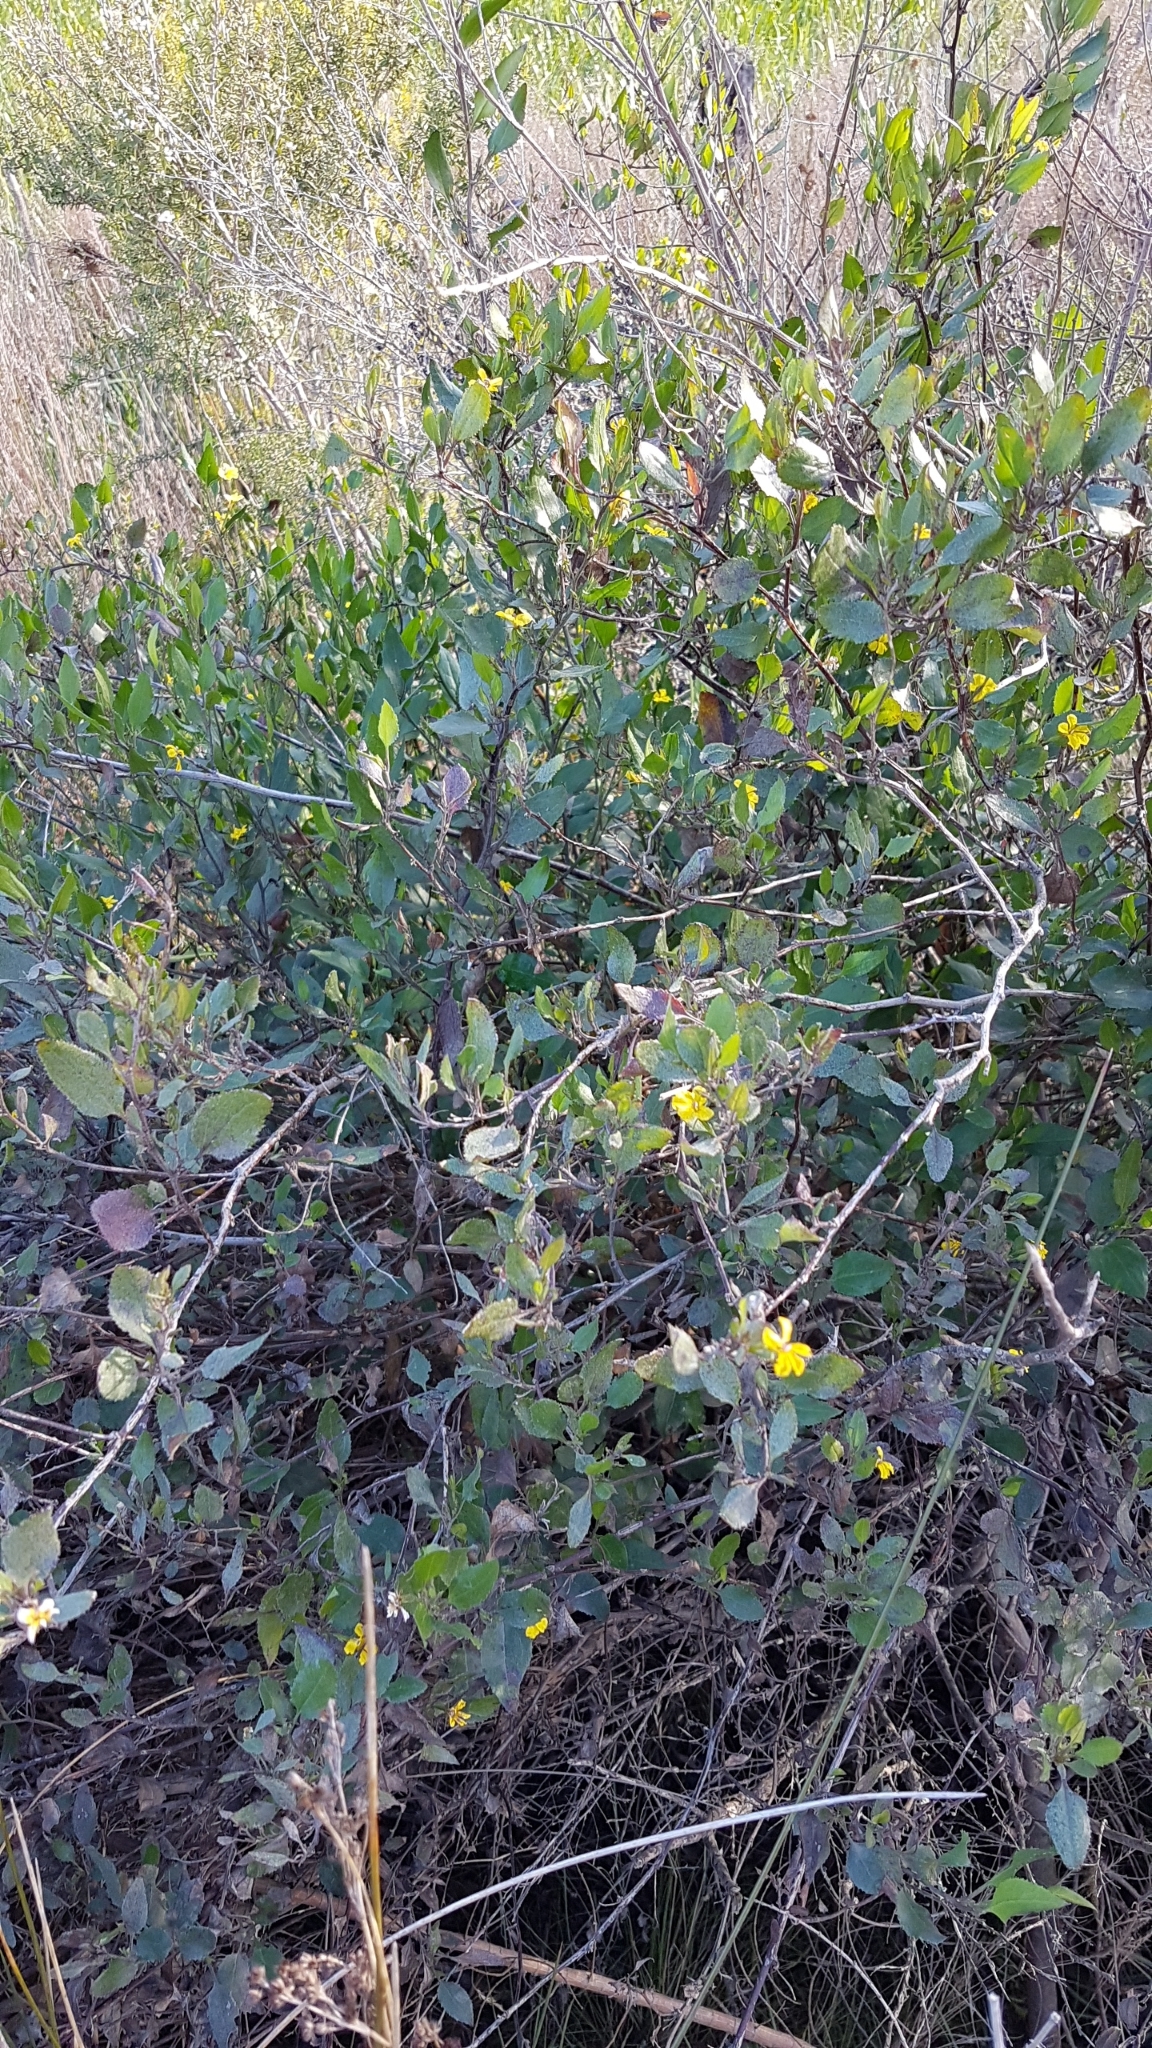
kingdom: Plantae
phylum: Tracheophyta
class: Magnoliopsida
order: Asterales
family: Goodeniaceae
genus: Goodenia
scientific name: Goodenia ovata
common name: Hop goodenia
